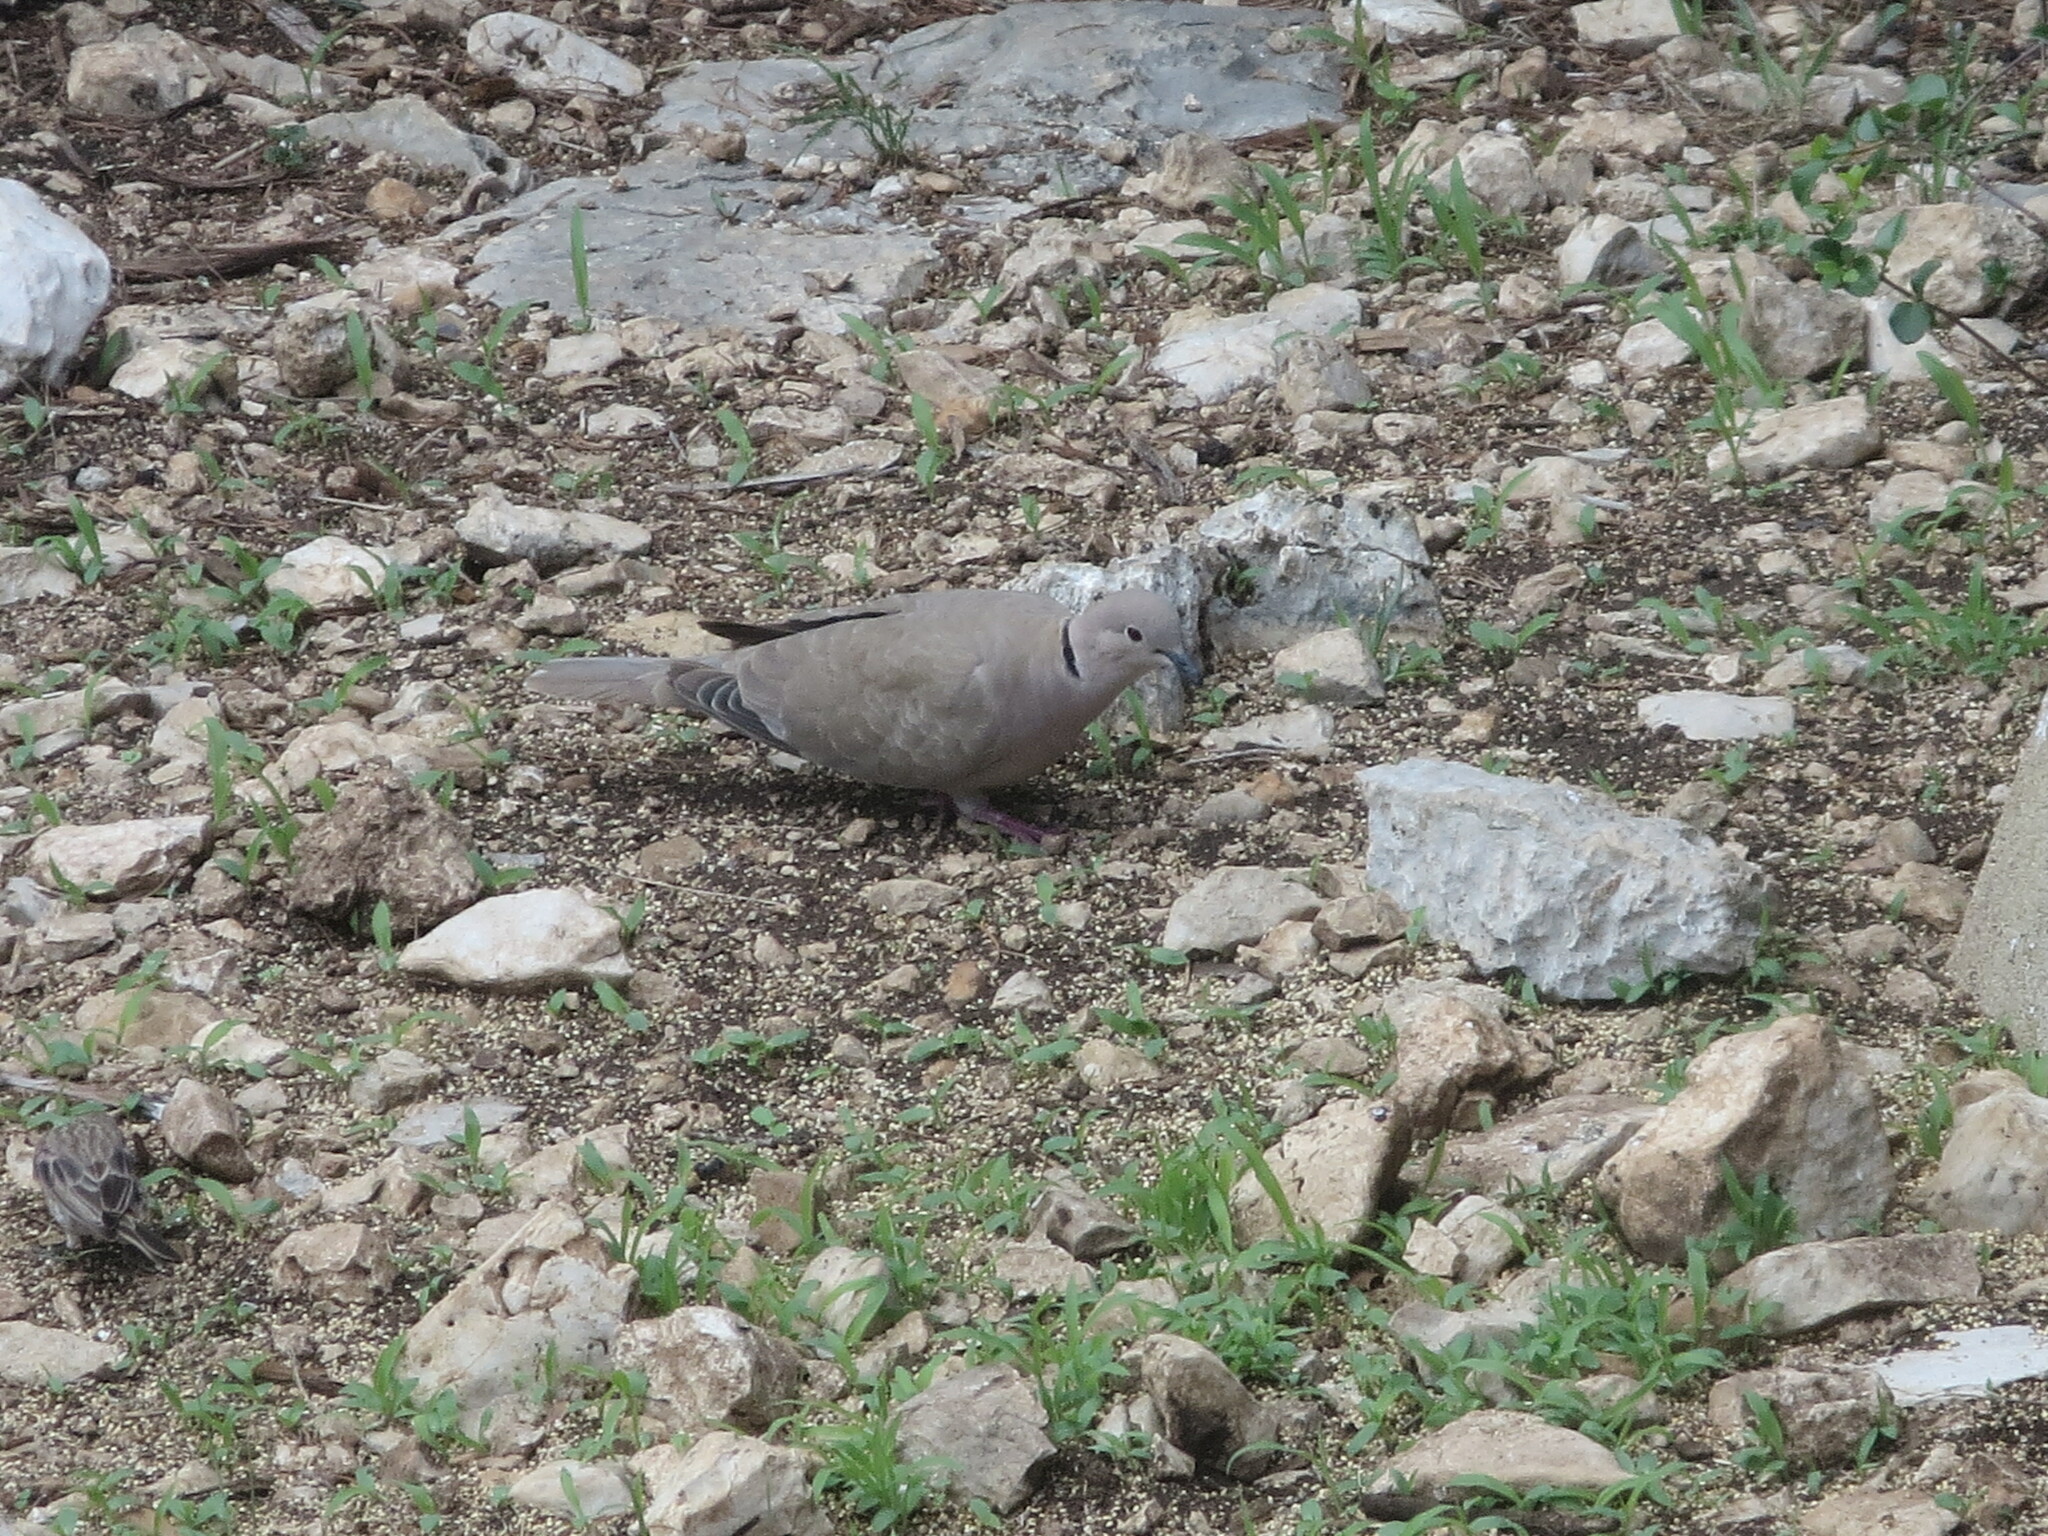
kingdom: Animalia
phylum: Chordata
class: Aves
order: Columbiformes
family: Columbidae
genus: Streptopelia
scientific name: Streptopelia decaocto
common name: Eurasian collared dove
